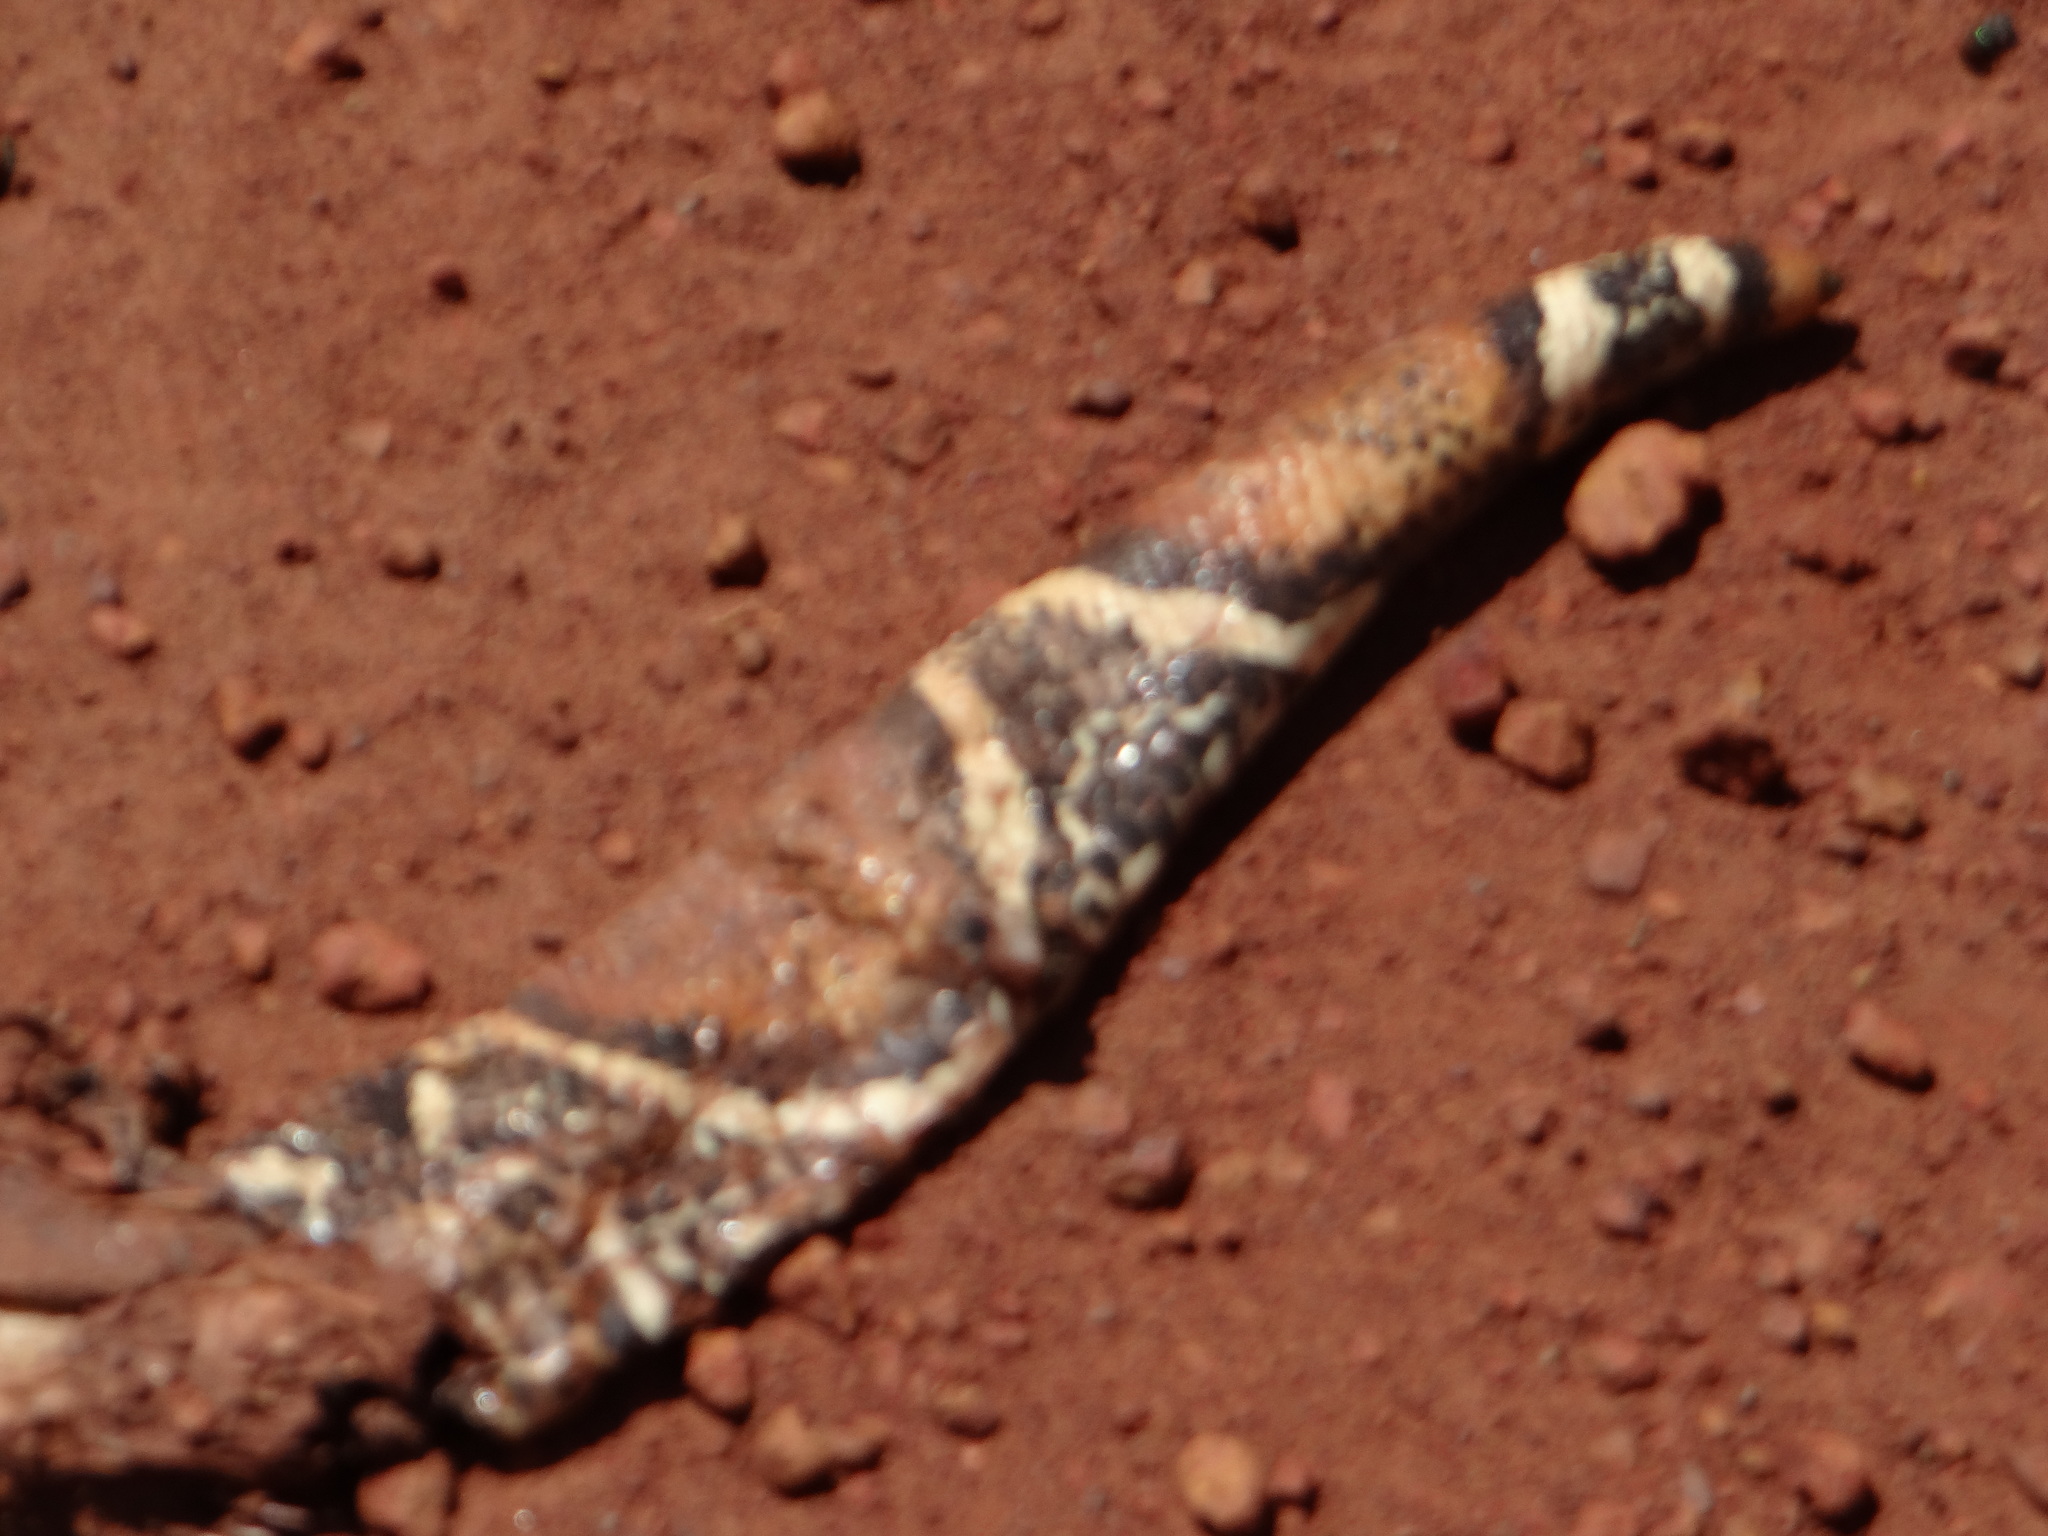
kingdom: Animalia
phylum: Chordata
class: Squamata
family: Boidae
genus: Boa
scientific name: Boa constrictor
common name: Boa constrictor
